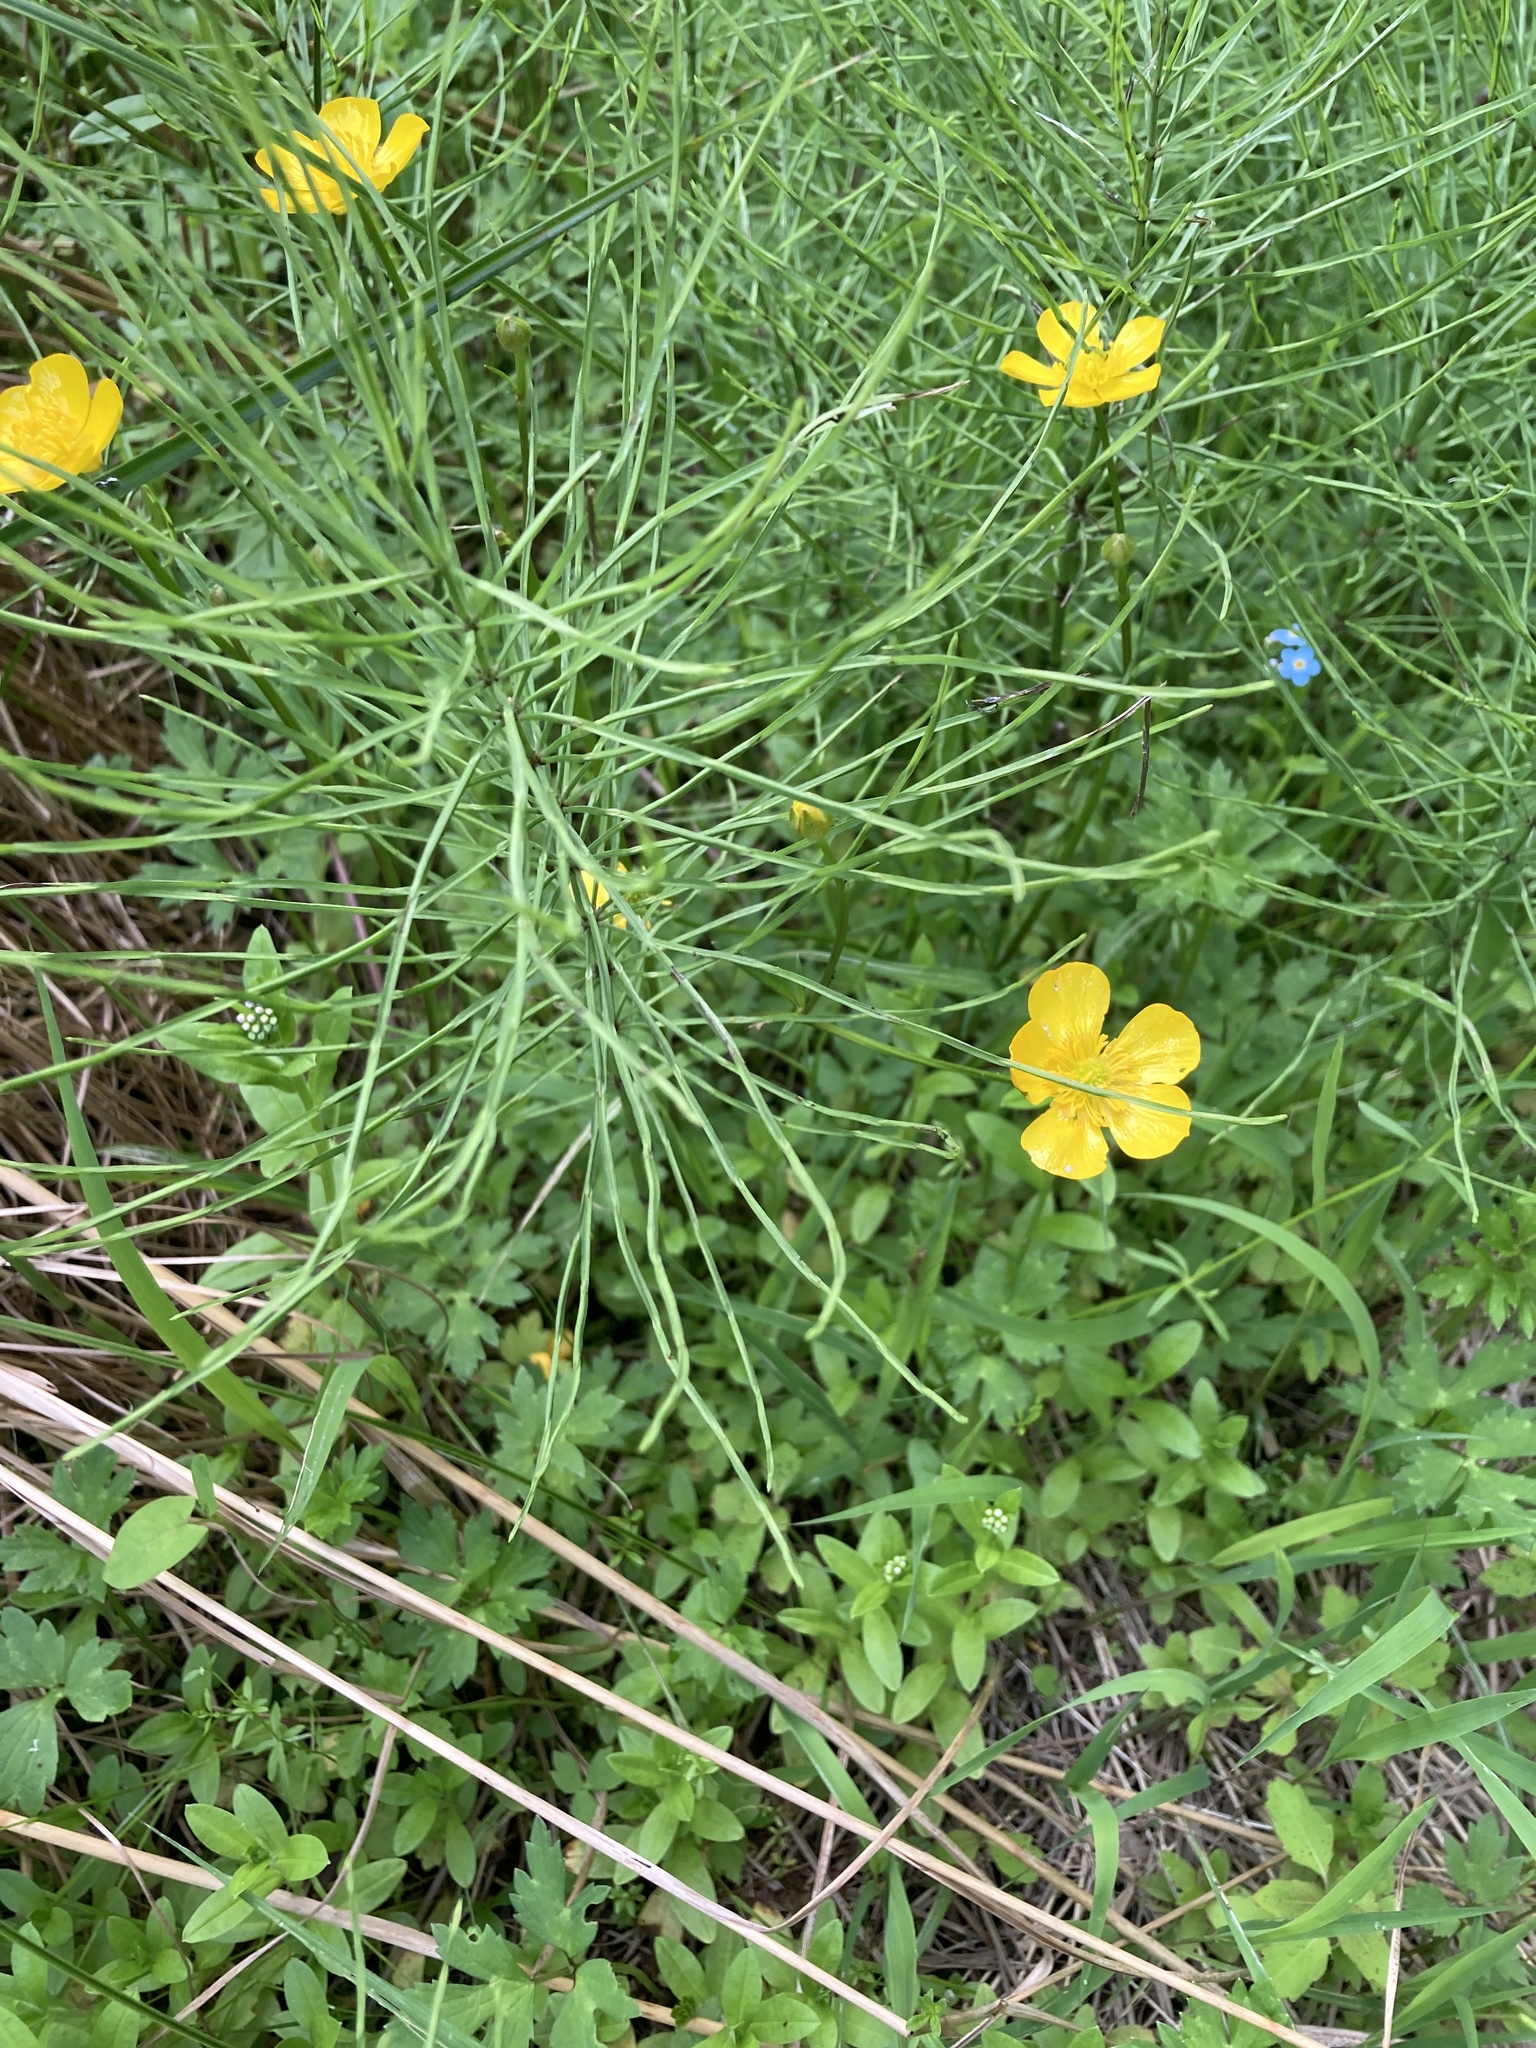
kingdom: Plantae
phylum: Tracheophyta
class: Magnoliopsida
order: Ranunculales
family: Ranunculaceae
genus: Ranunculus
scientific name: Ranunculus repens
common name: Creeping buttercup
